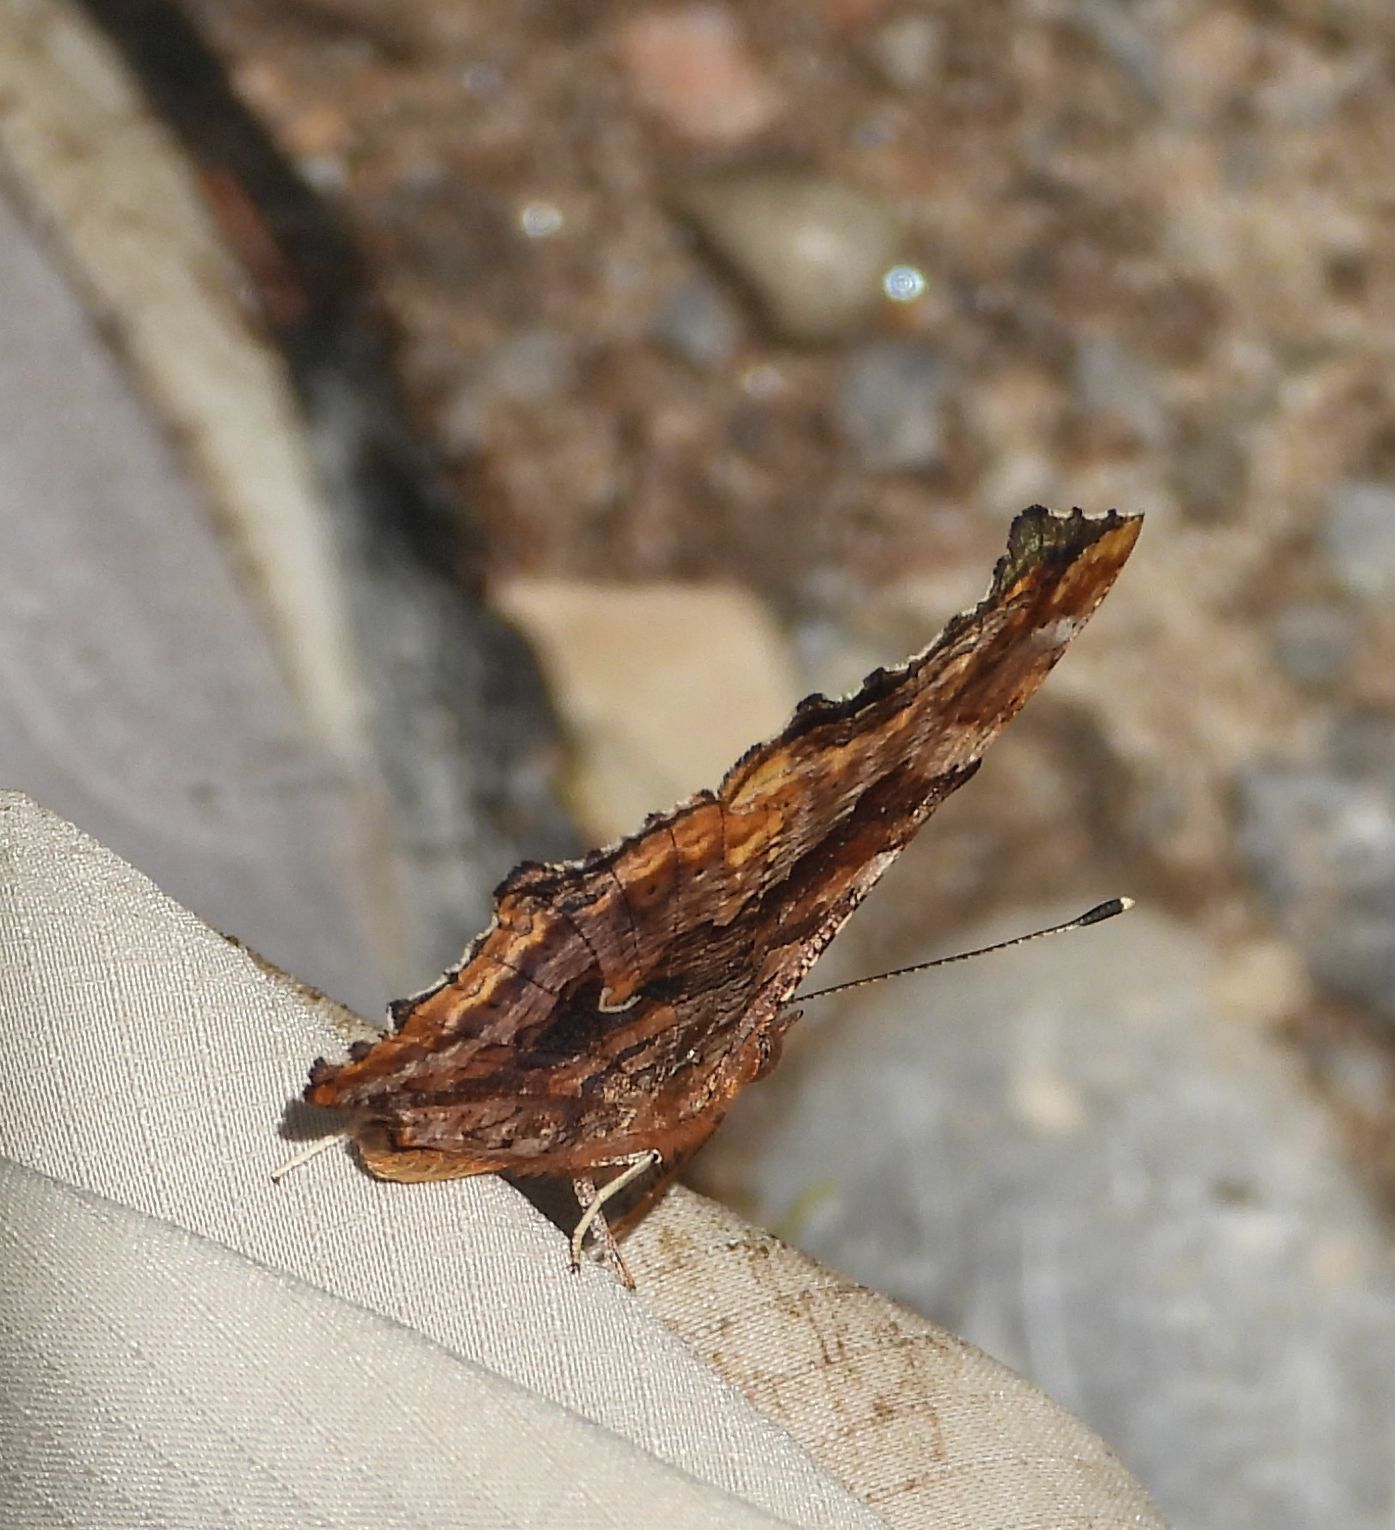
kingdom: Animalia
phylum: Arthropoda
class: Insecta
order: Lepidoptera
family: Nymphalidae
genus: Polygonia
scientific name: Polygonia comma
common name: Eastern comma
